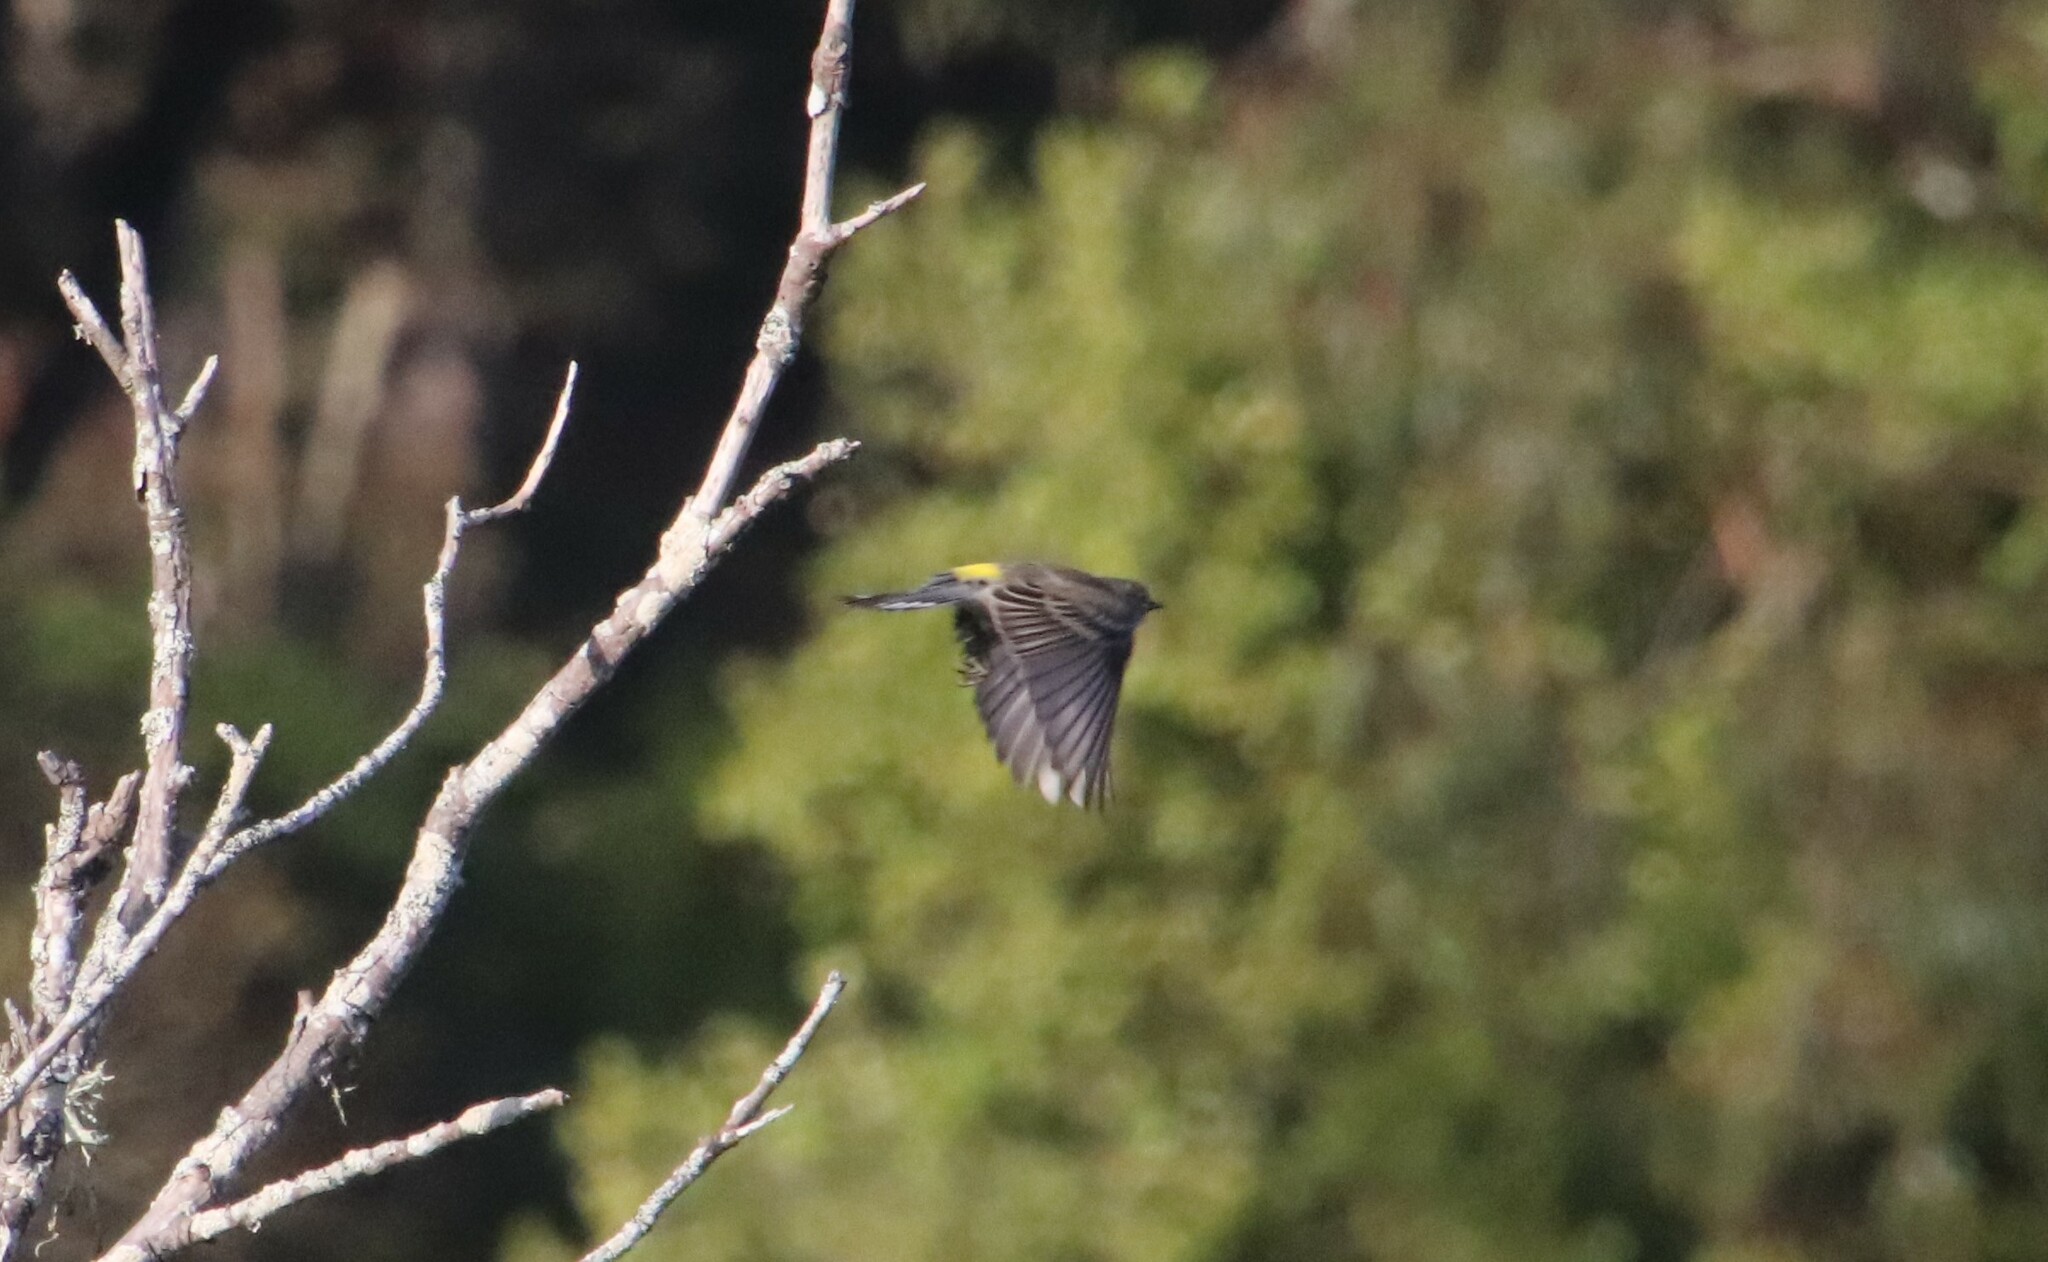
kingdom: Animalia
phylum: Chordata
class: Aves
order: Passeriformes
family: Parulidae
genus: Setophaga
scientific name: Setophaga coronata
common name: Myrtle warbler
